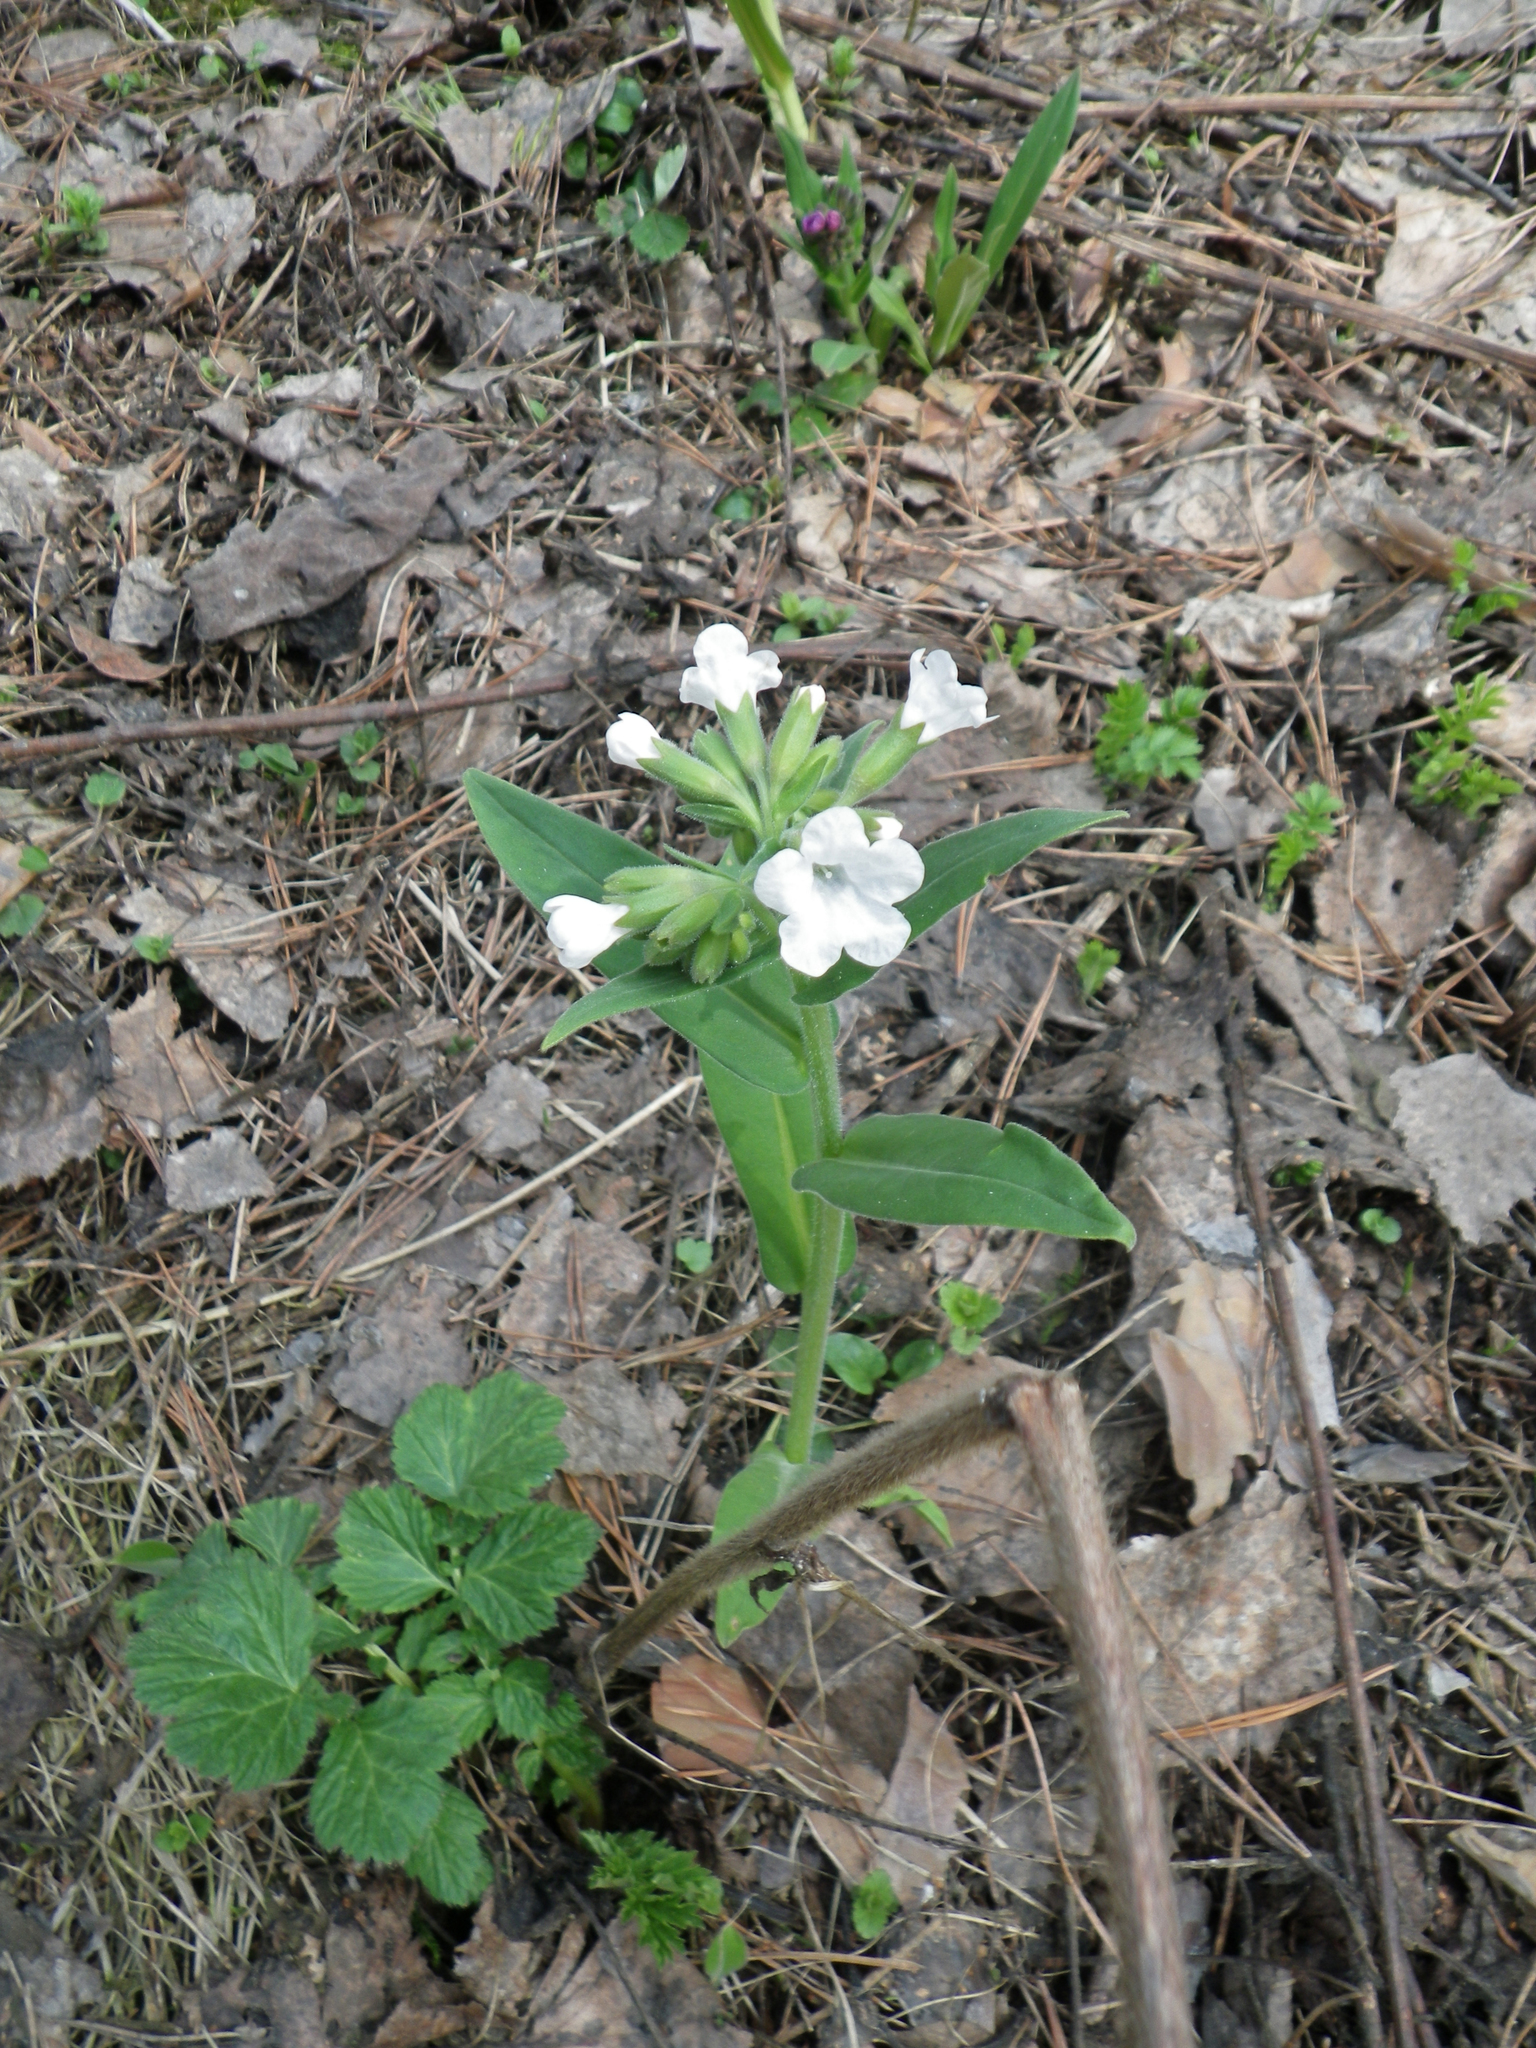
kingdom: Plantae
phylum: Tracheophyta
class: Magnoliopsida
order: Boraginales
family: Boraginaceae
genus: Pulmonaria
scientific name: Pulmonaria mollis
